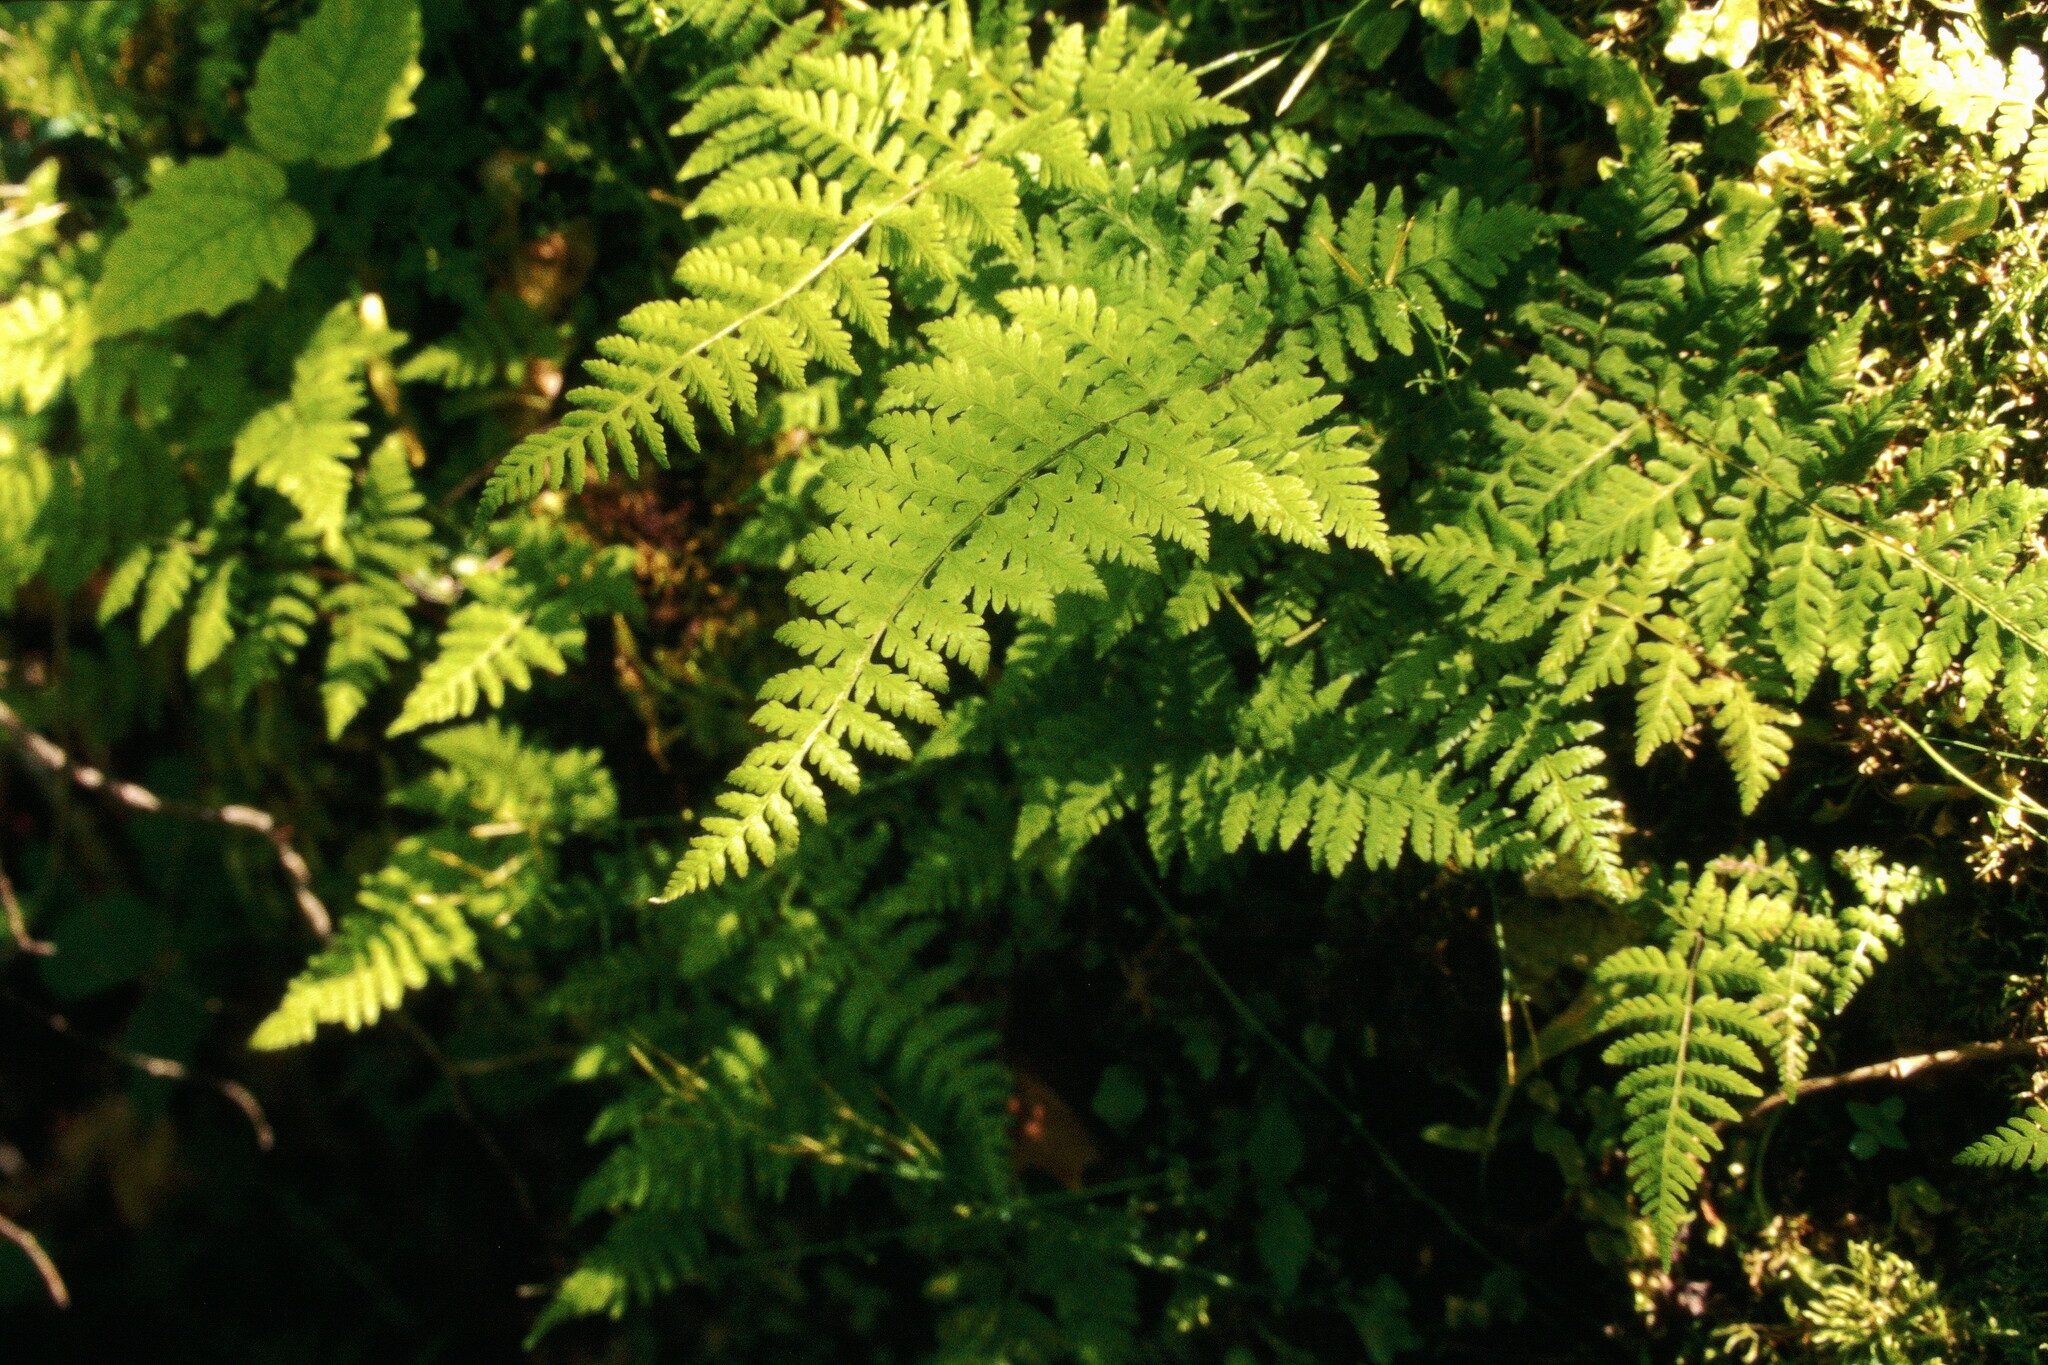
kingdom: Plantae
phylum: Tracheophyta
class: Polypodiopsida
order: Polypodiales
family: Cystopteridaceae
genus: Cystopteris
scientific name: Cystopteris bulbifera
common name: Bulblet bladder fern
